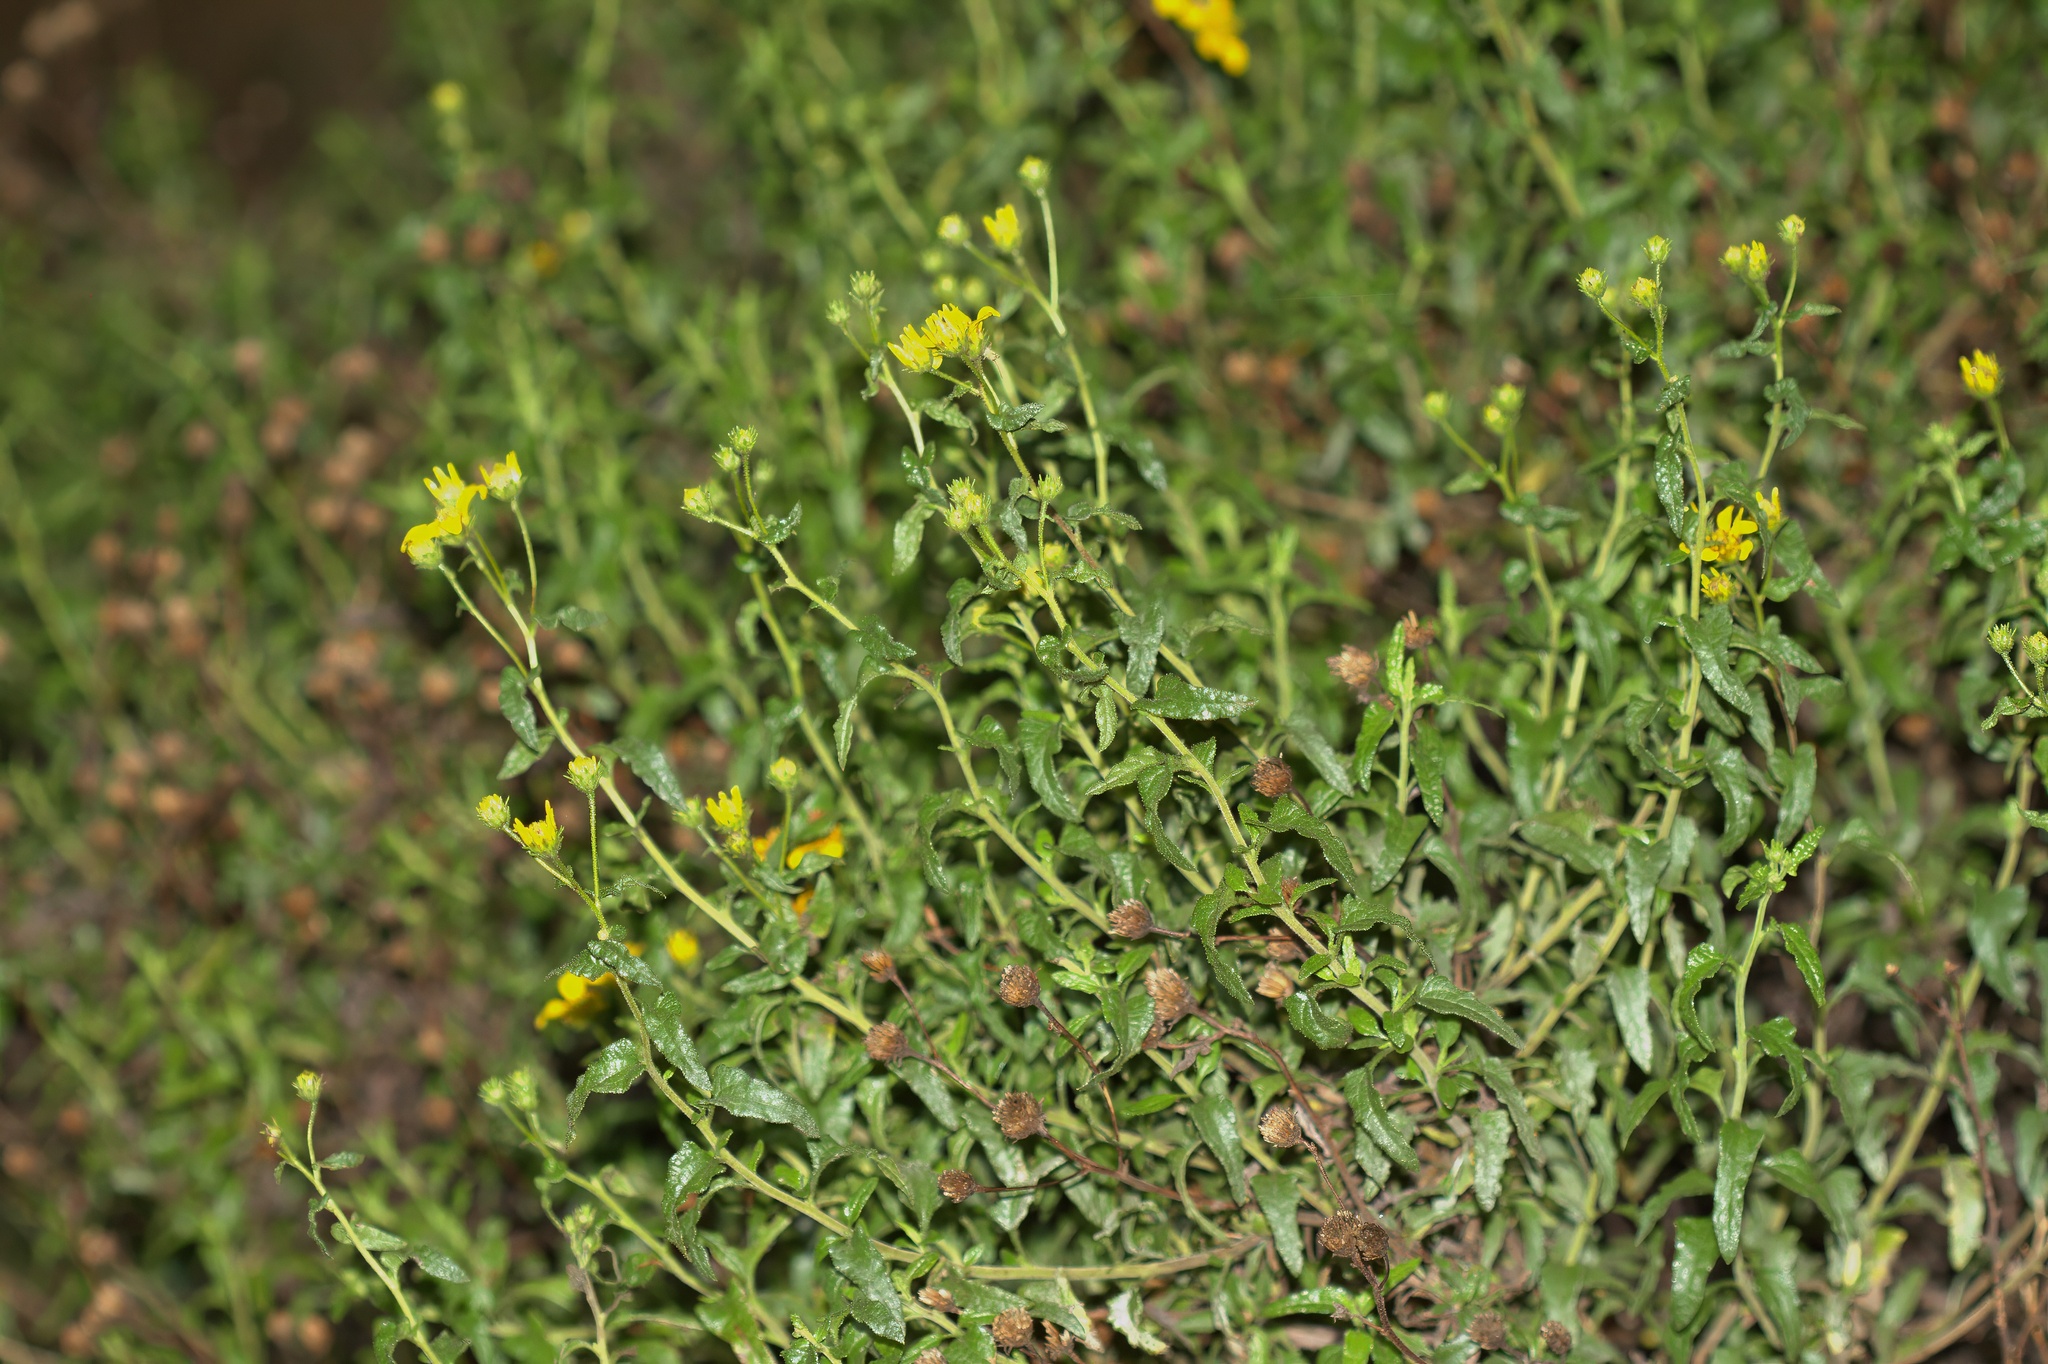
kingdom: Plantae
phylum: Tracheophyta
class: Magnoliopsida
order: Asterales
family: Asteraceae
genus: Bahiopsis
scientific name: Bahiopsis laciniata
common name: San diego county viguiera
